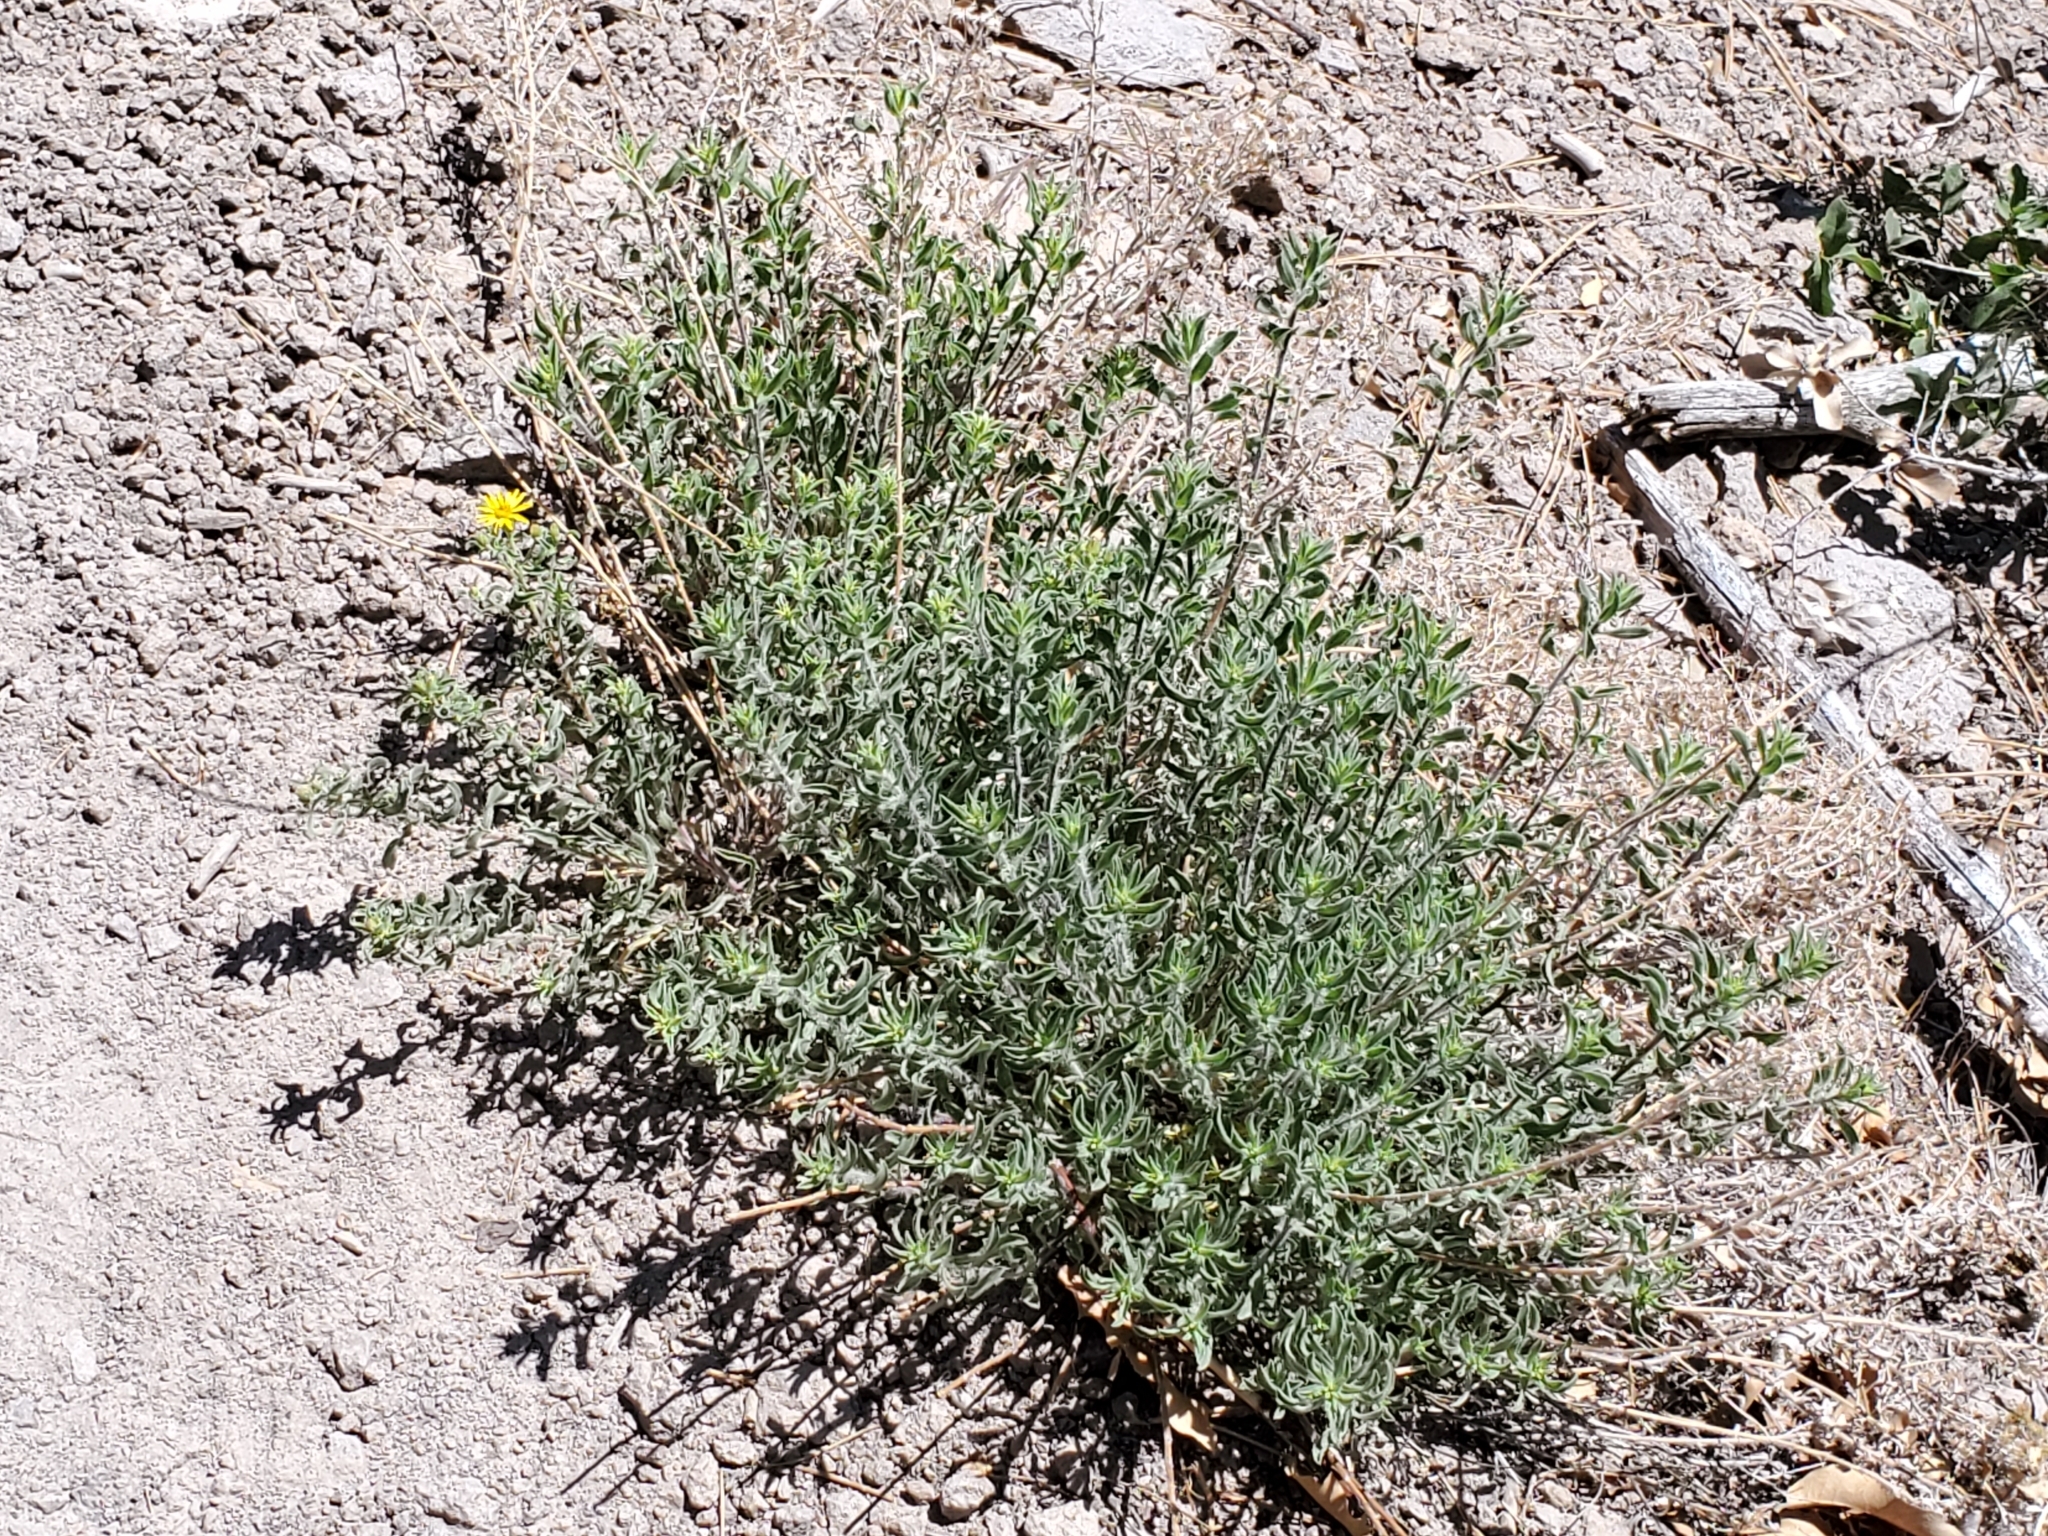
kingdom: Plantae
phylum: Tracheophyta
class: Magnoliopsida
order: Asterales
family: Asteraceae
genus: Heterotheca
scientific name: Heterotheca hirsutissima
